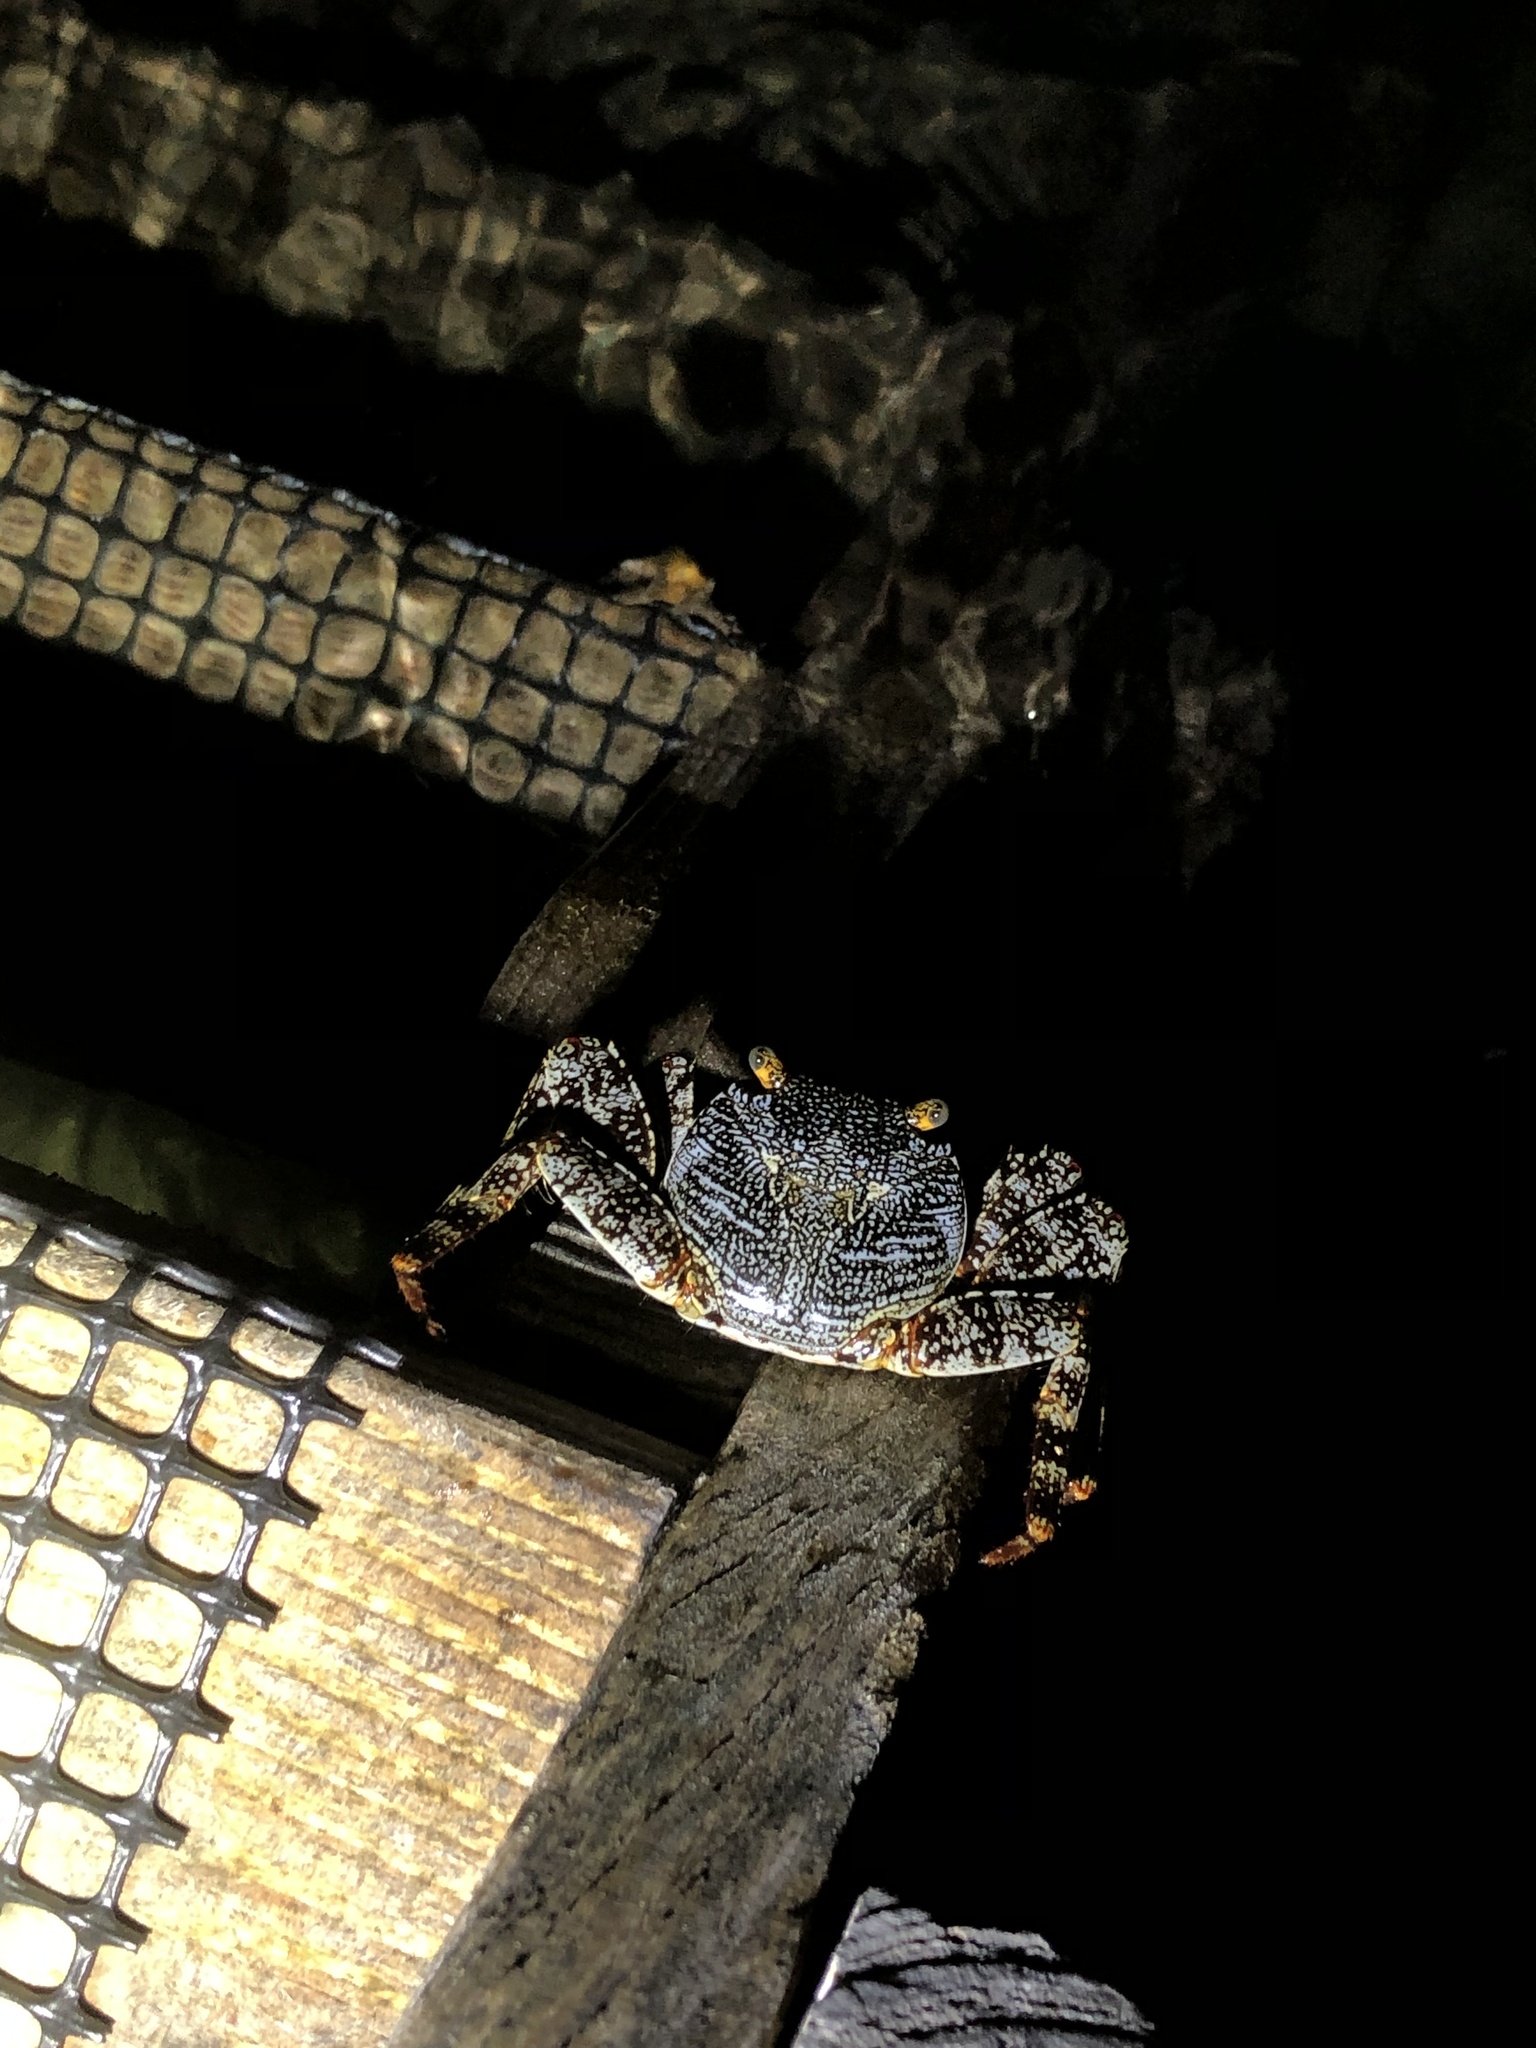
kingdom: Animalia
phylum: Arthropoda
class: Malacostraca
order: Decapoda
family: Grapsidae
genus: Grapsus
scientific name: Grapsus grapsus
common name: Sally lightfoot
